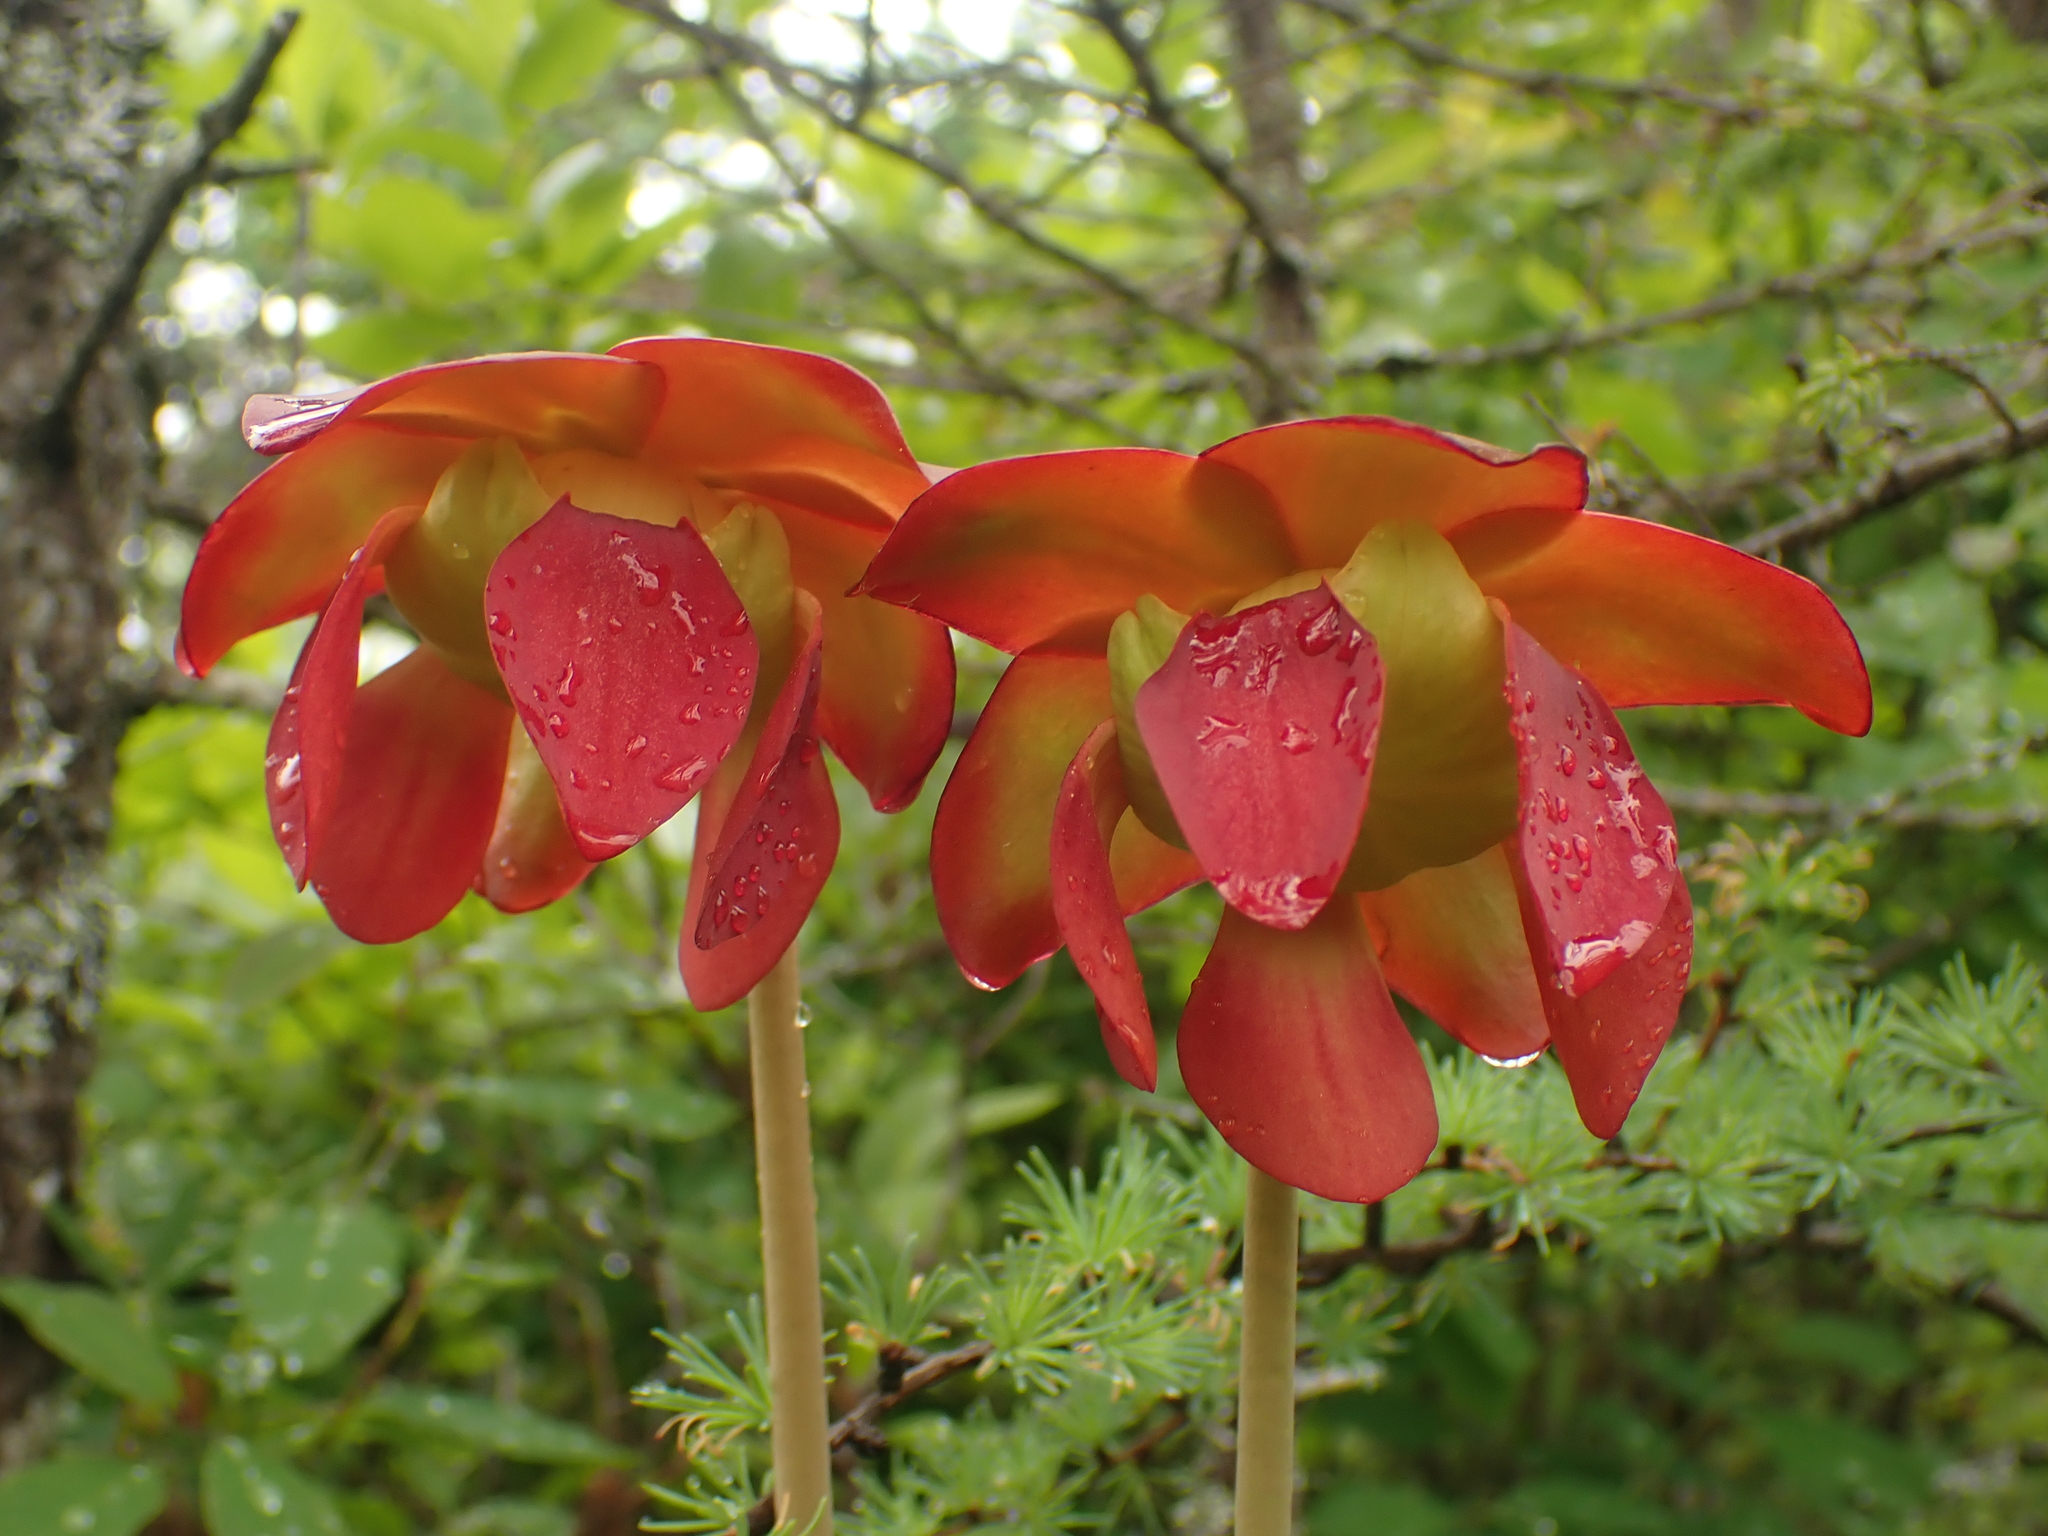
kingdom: Plantae
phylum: Tracheophyta
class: Magnoliopsida
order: Ericales
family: Sarraceniaceae
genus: Sarracenia
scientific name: Sarracenia purpurea
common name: Pitcherplant
